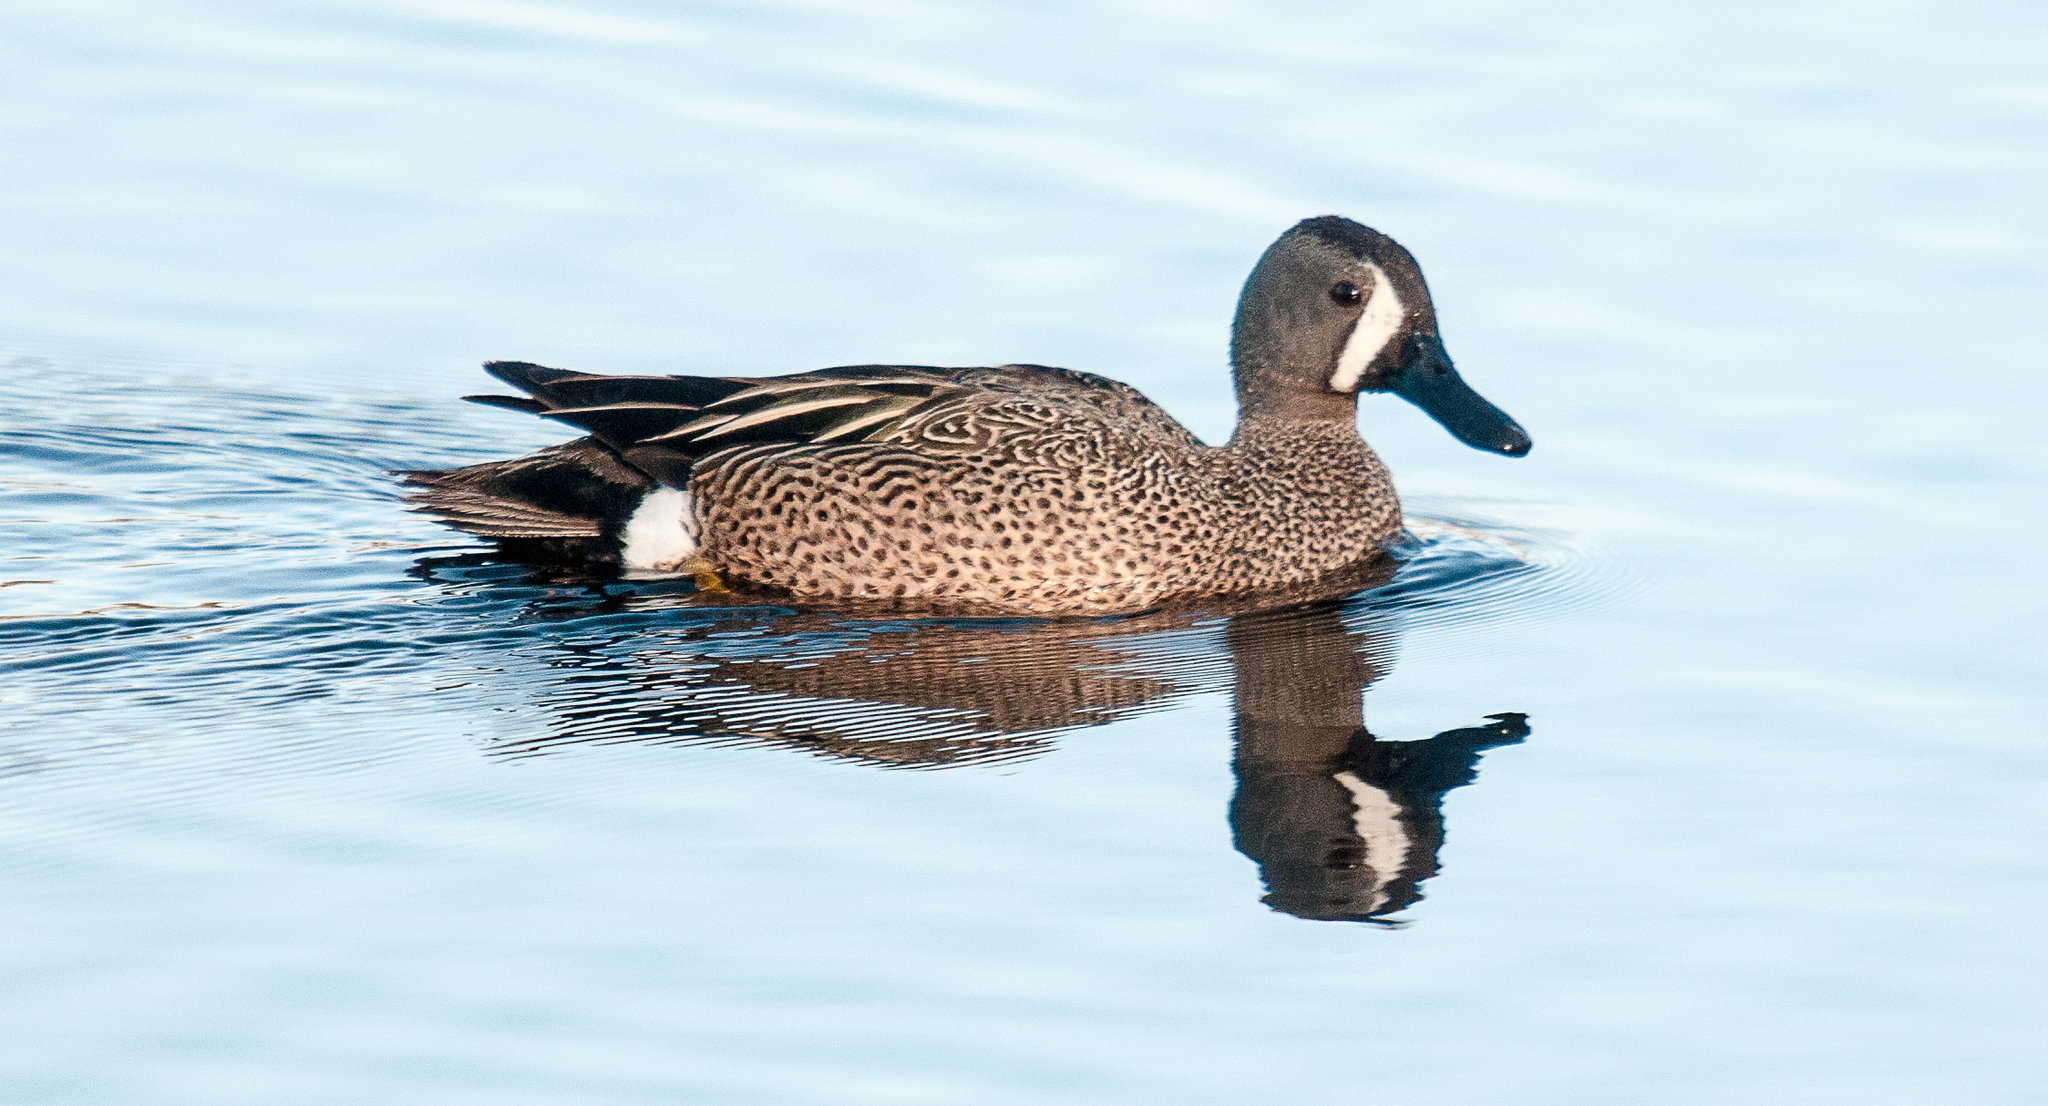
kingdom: Animalia
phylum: Chordata
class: Aves
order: Anseriformes
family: Anatidae
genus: Spatula
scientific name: Spatula discors
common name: Blue-winged teal
